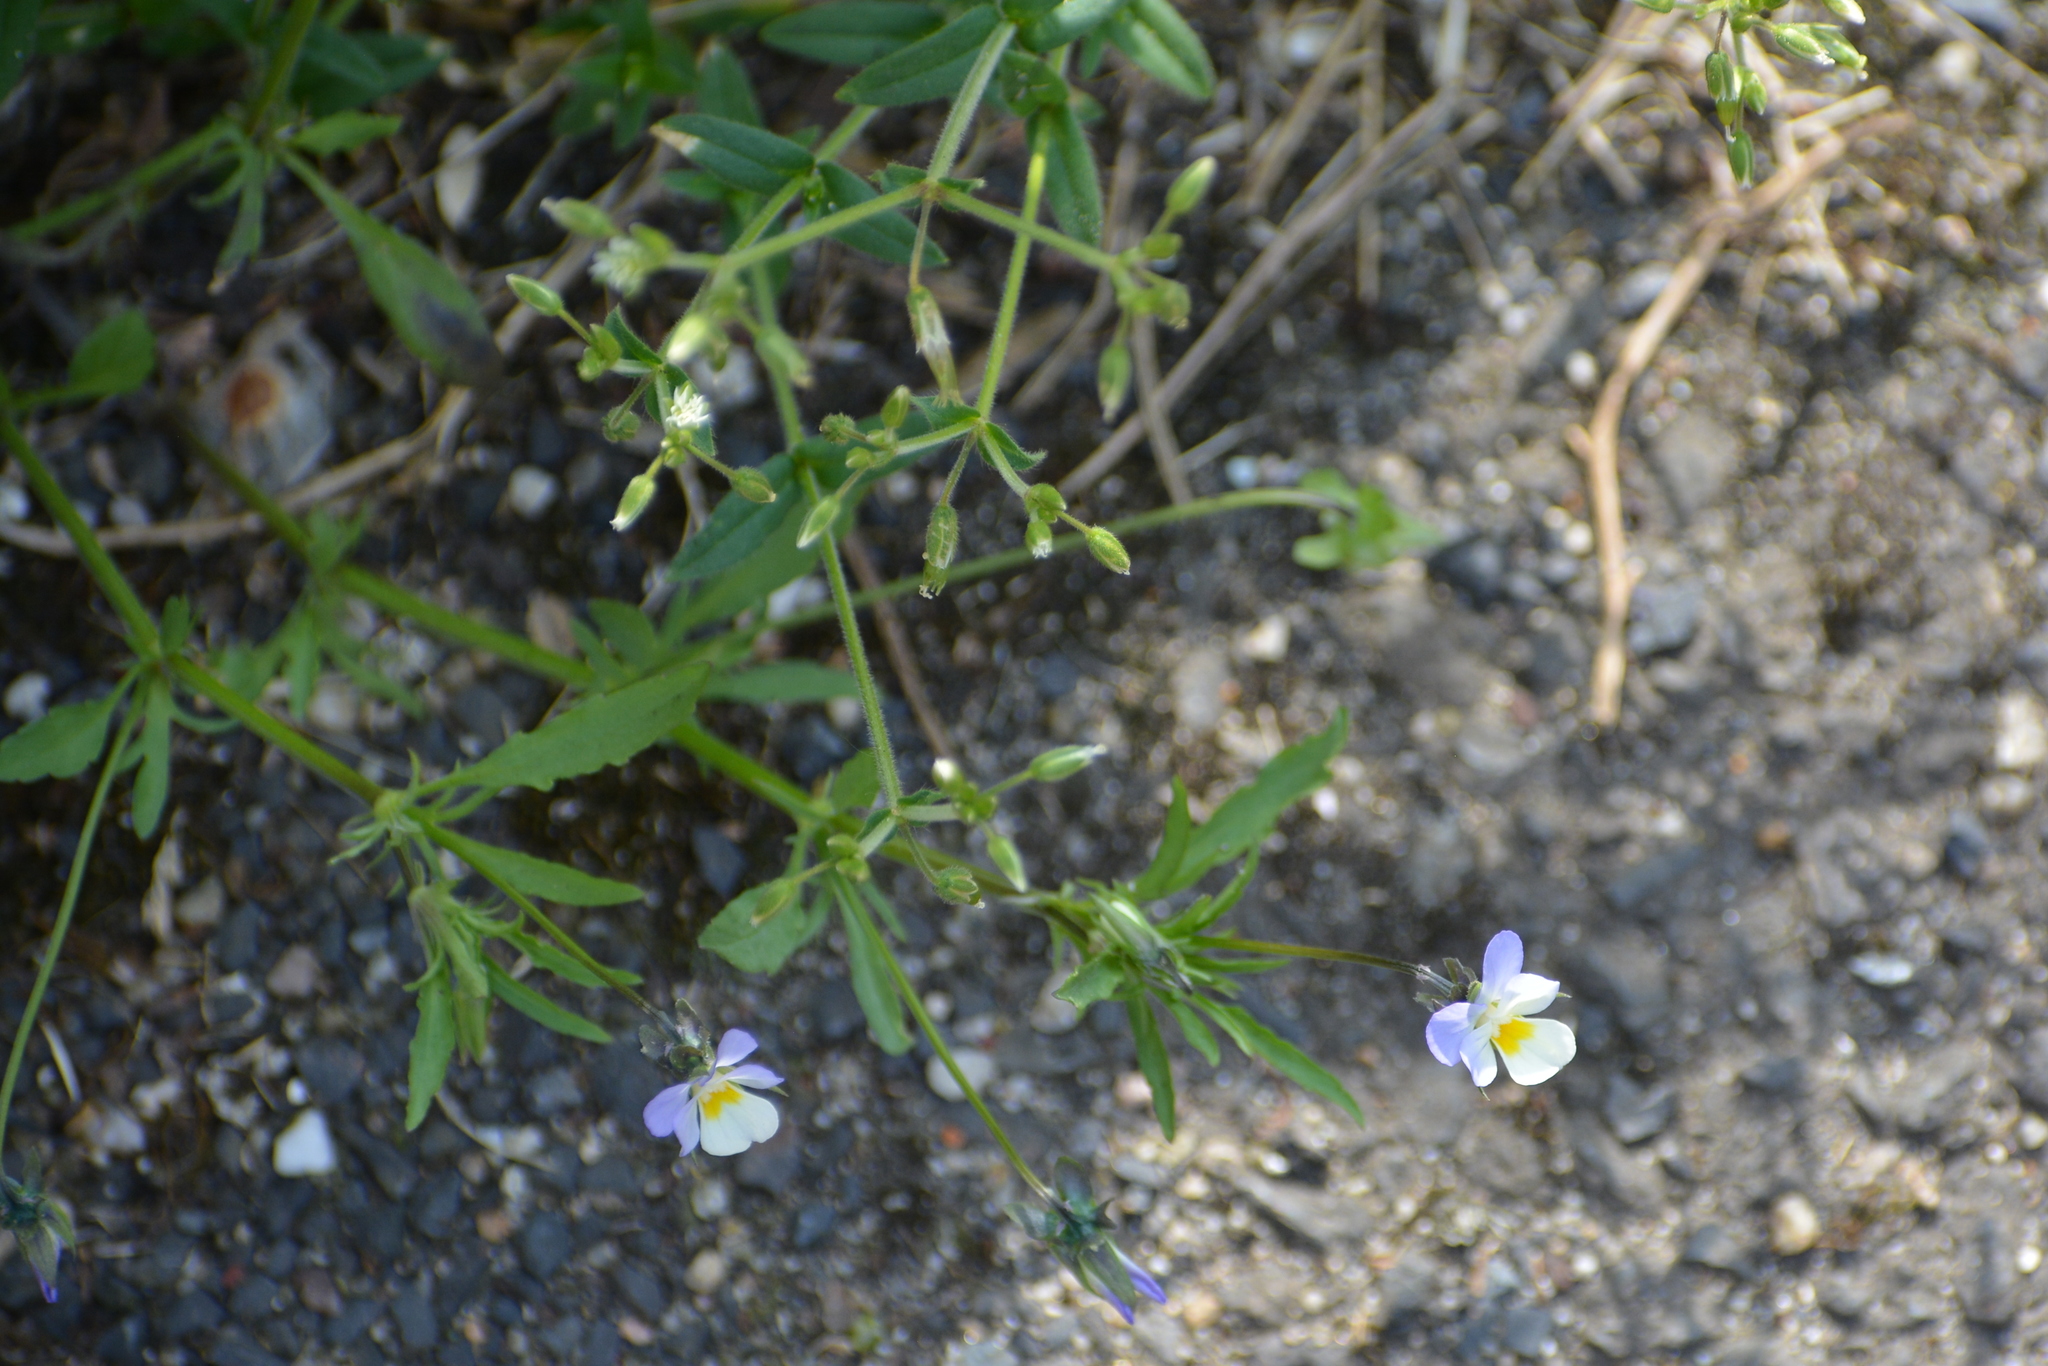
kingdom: Plantae
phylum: Tracheophyta
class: Magnoliopsida
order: Malpighiales
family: Violaceae
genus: Viola
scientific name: Viola arvensis
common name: Field pansy
